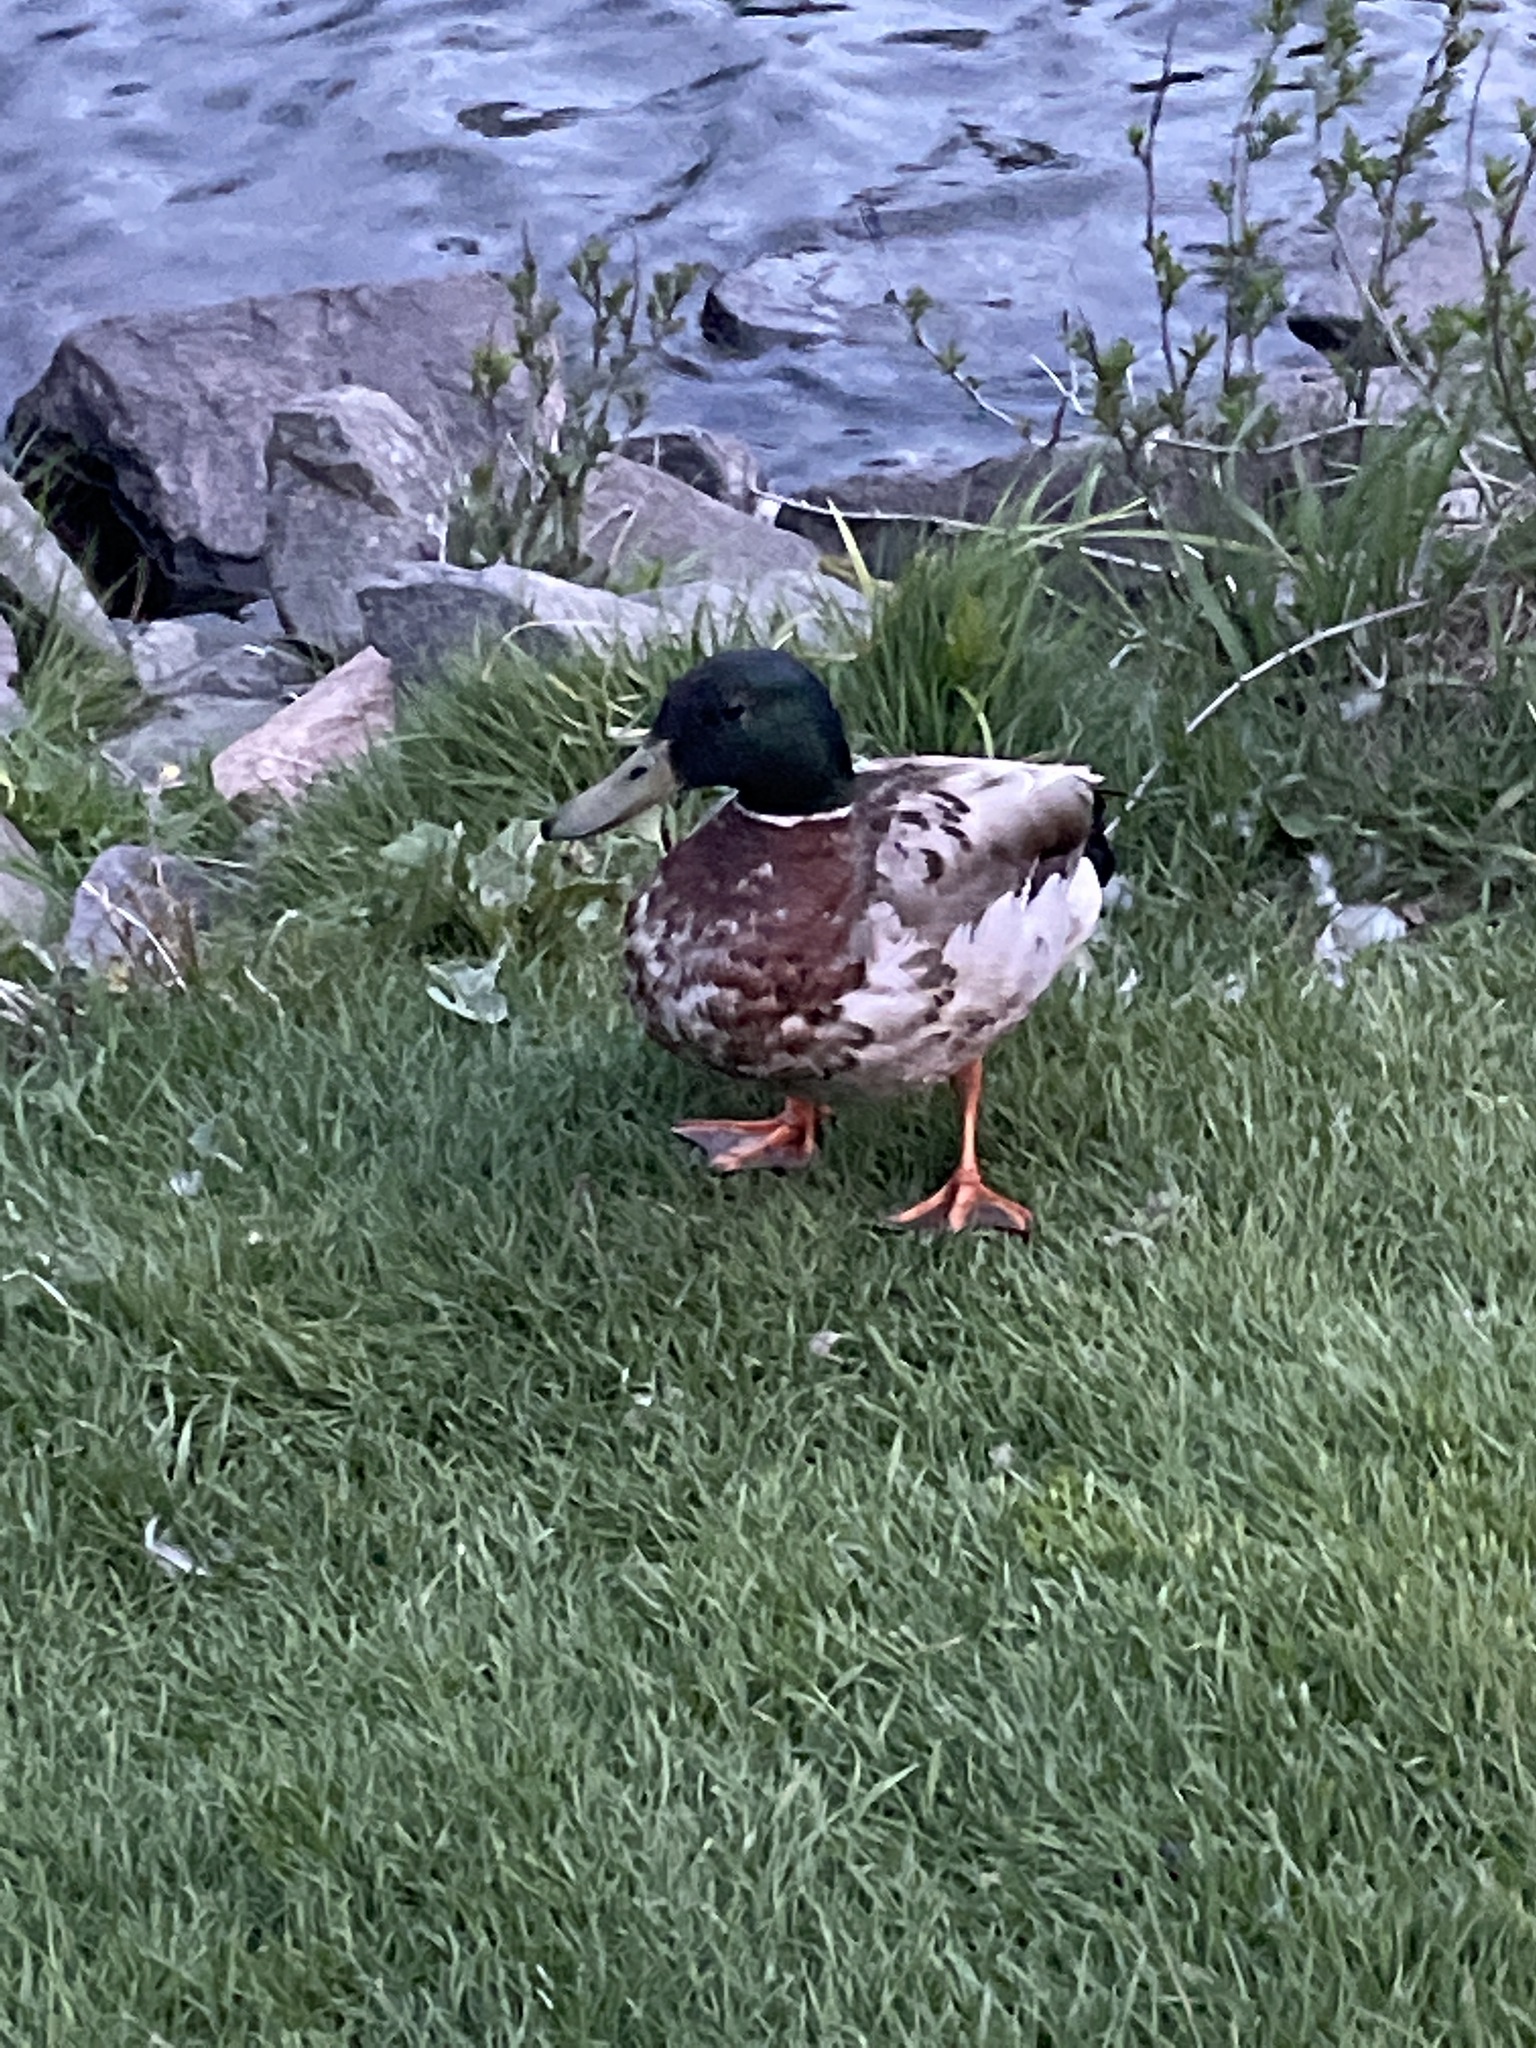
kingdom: Animalia
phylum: Chordata
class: Aves
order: Anseriformes
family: Anatidae
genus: Anas
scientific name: Anas platyrhynchos
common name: Mallard
